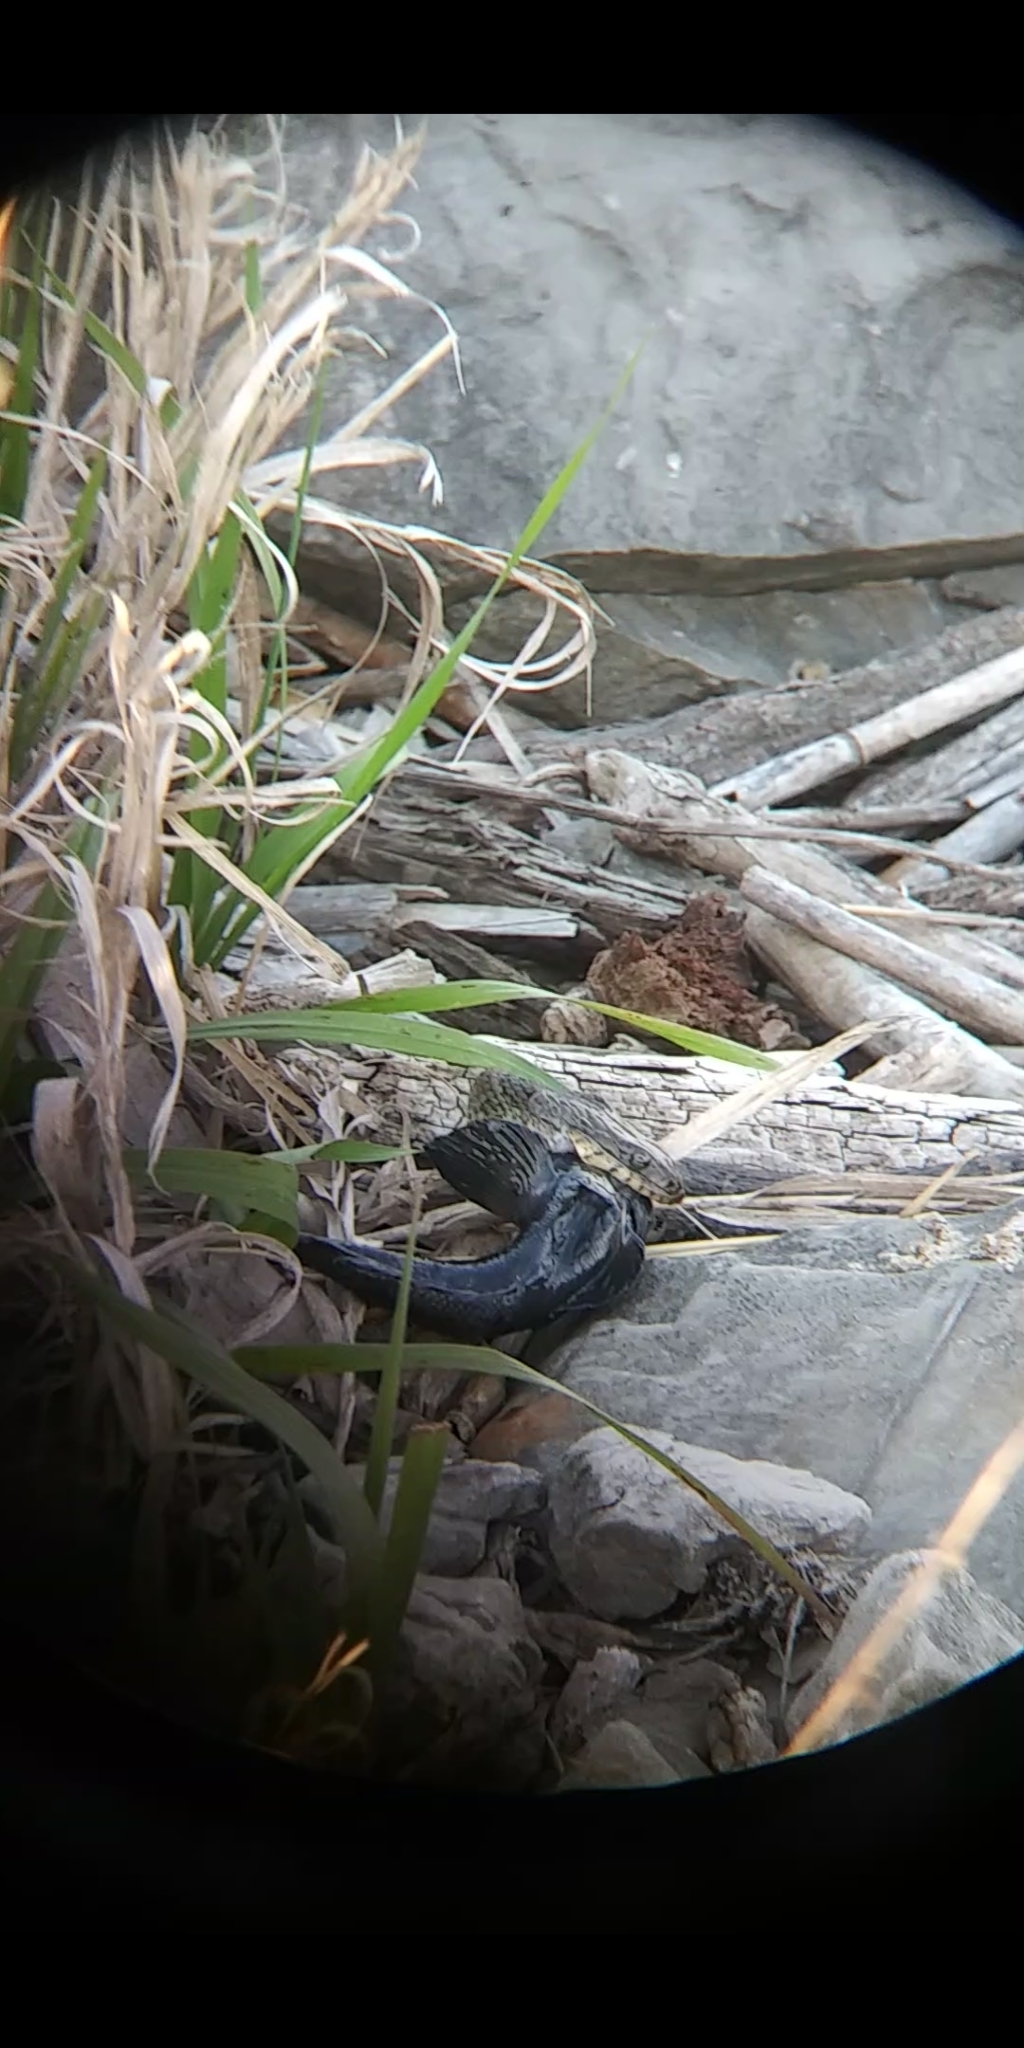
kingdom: Animalia
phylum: Chordata
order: Perciformes
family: Gobiidae
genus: Neogobius
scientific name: Neogobius melanostomus
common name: Round goby
